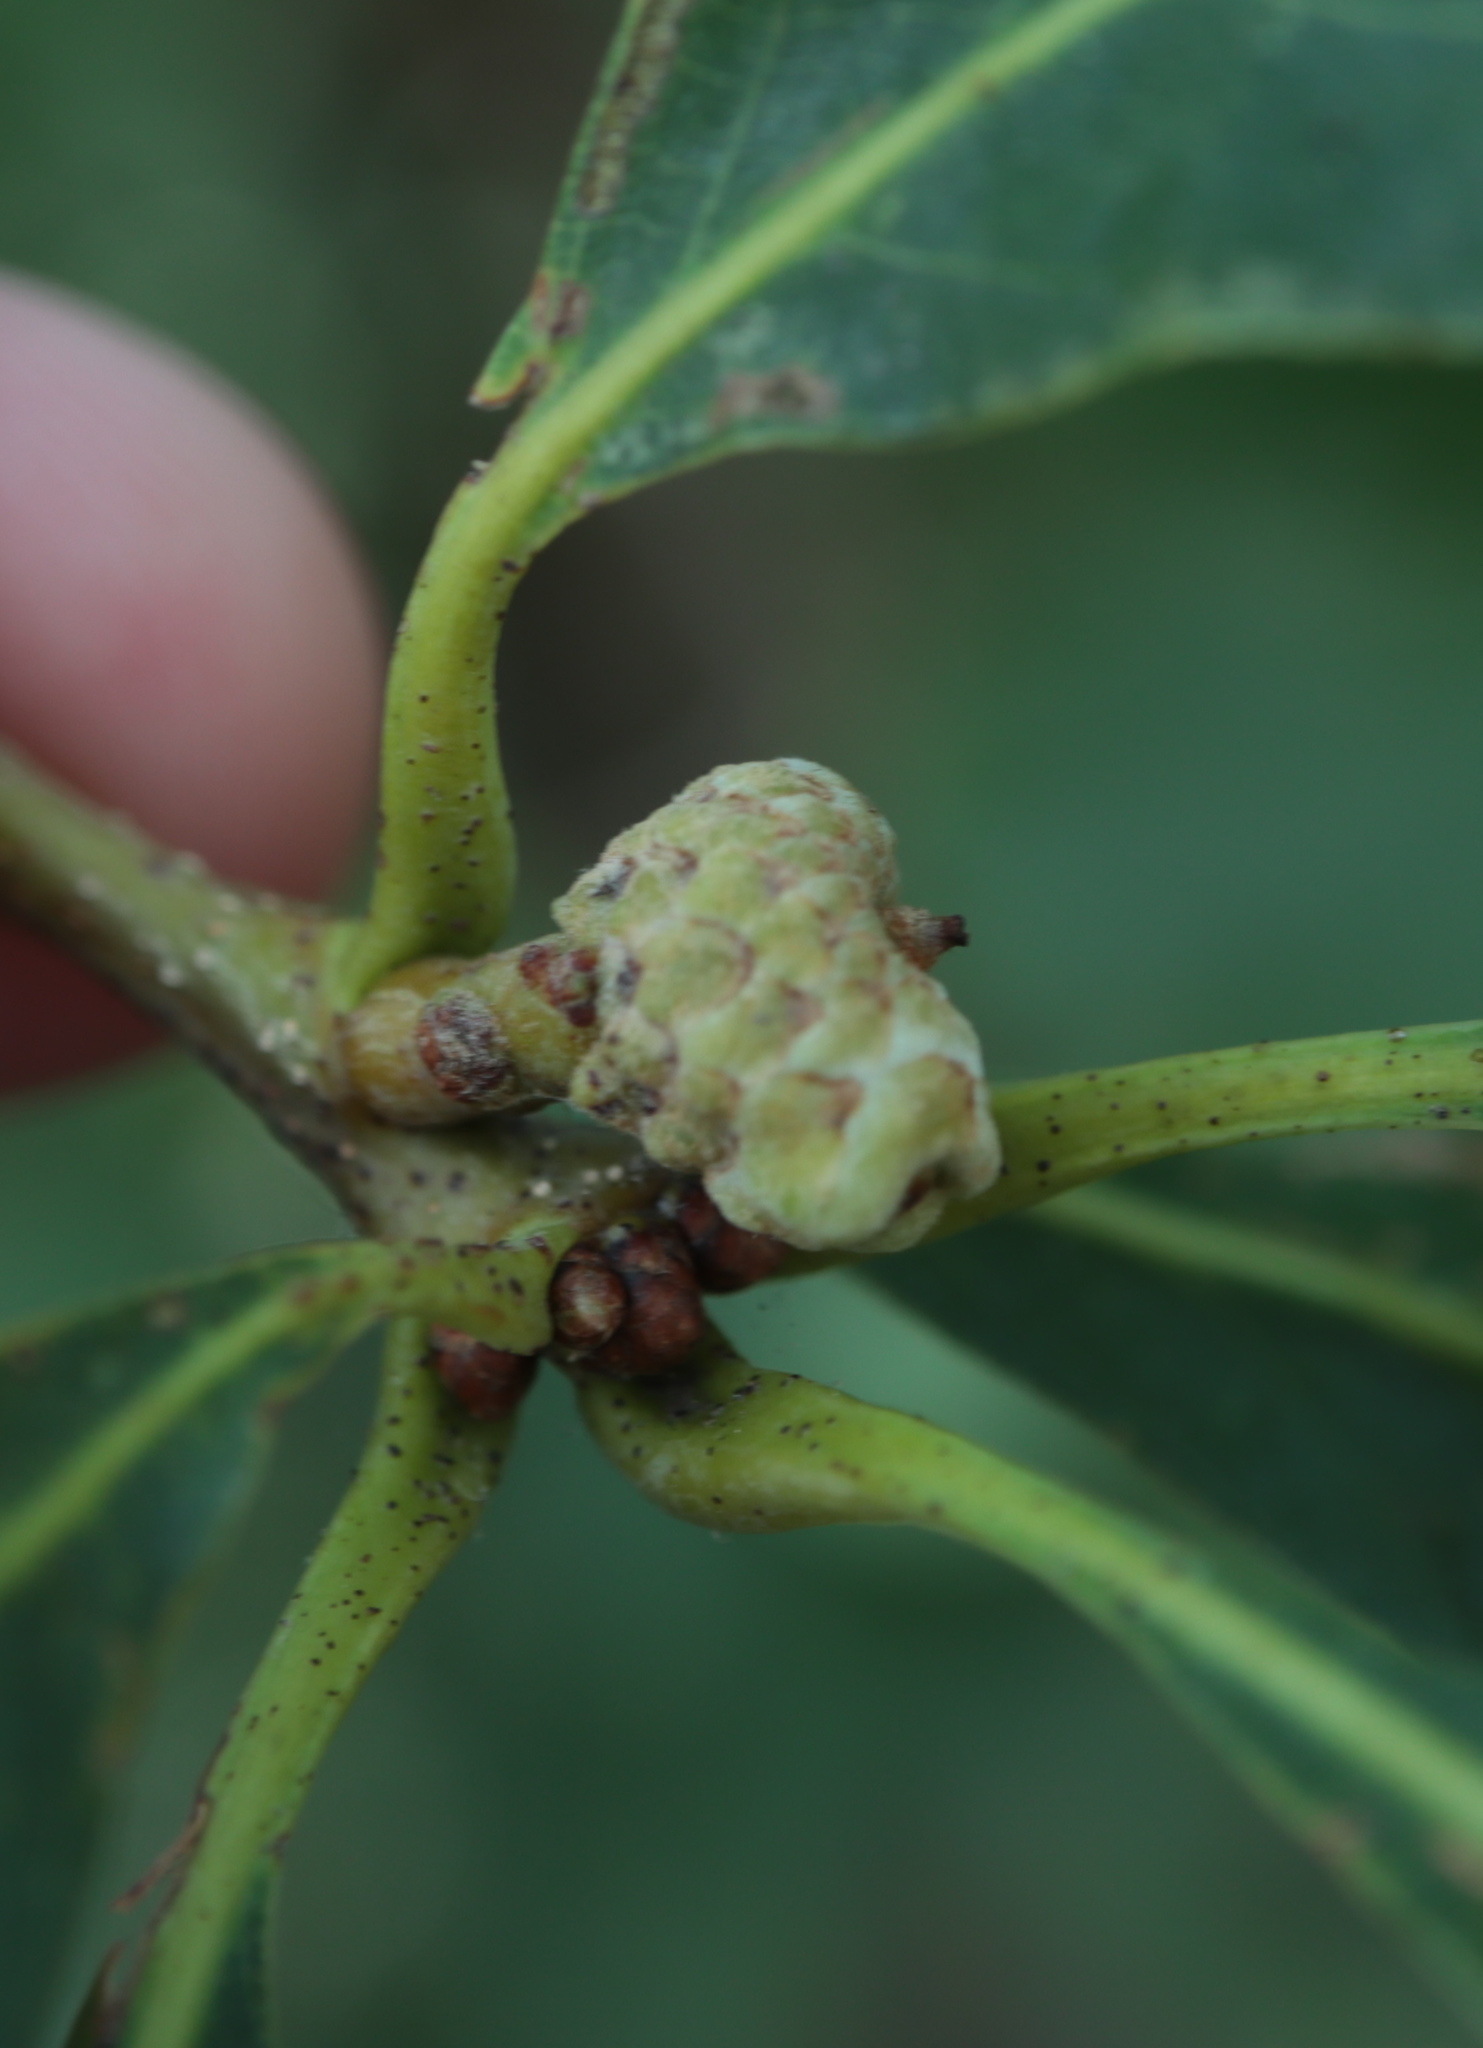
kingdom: Animalia
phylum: Arthropoda
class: Insecta
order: Hymenoptera
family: Cynipidae
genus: Callirhytis
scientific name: Callirhytis glandium
